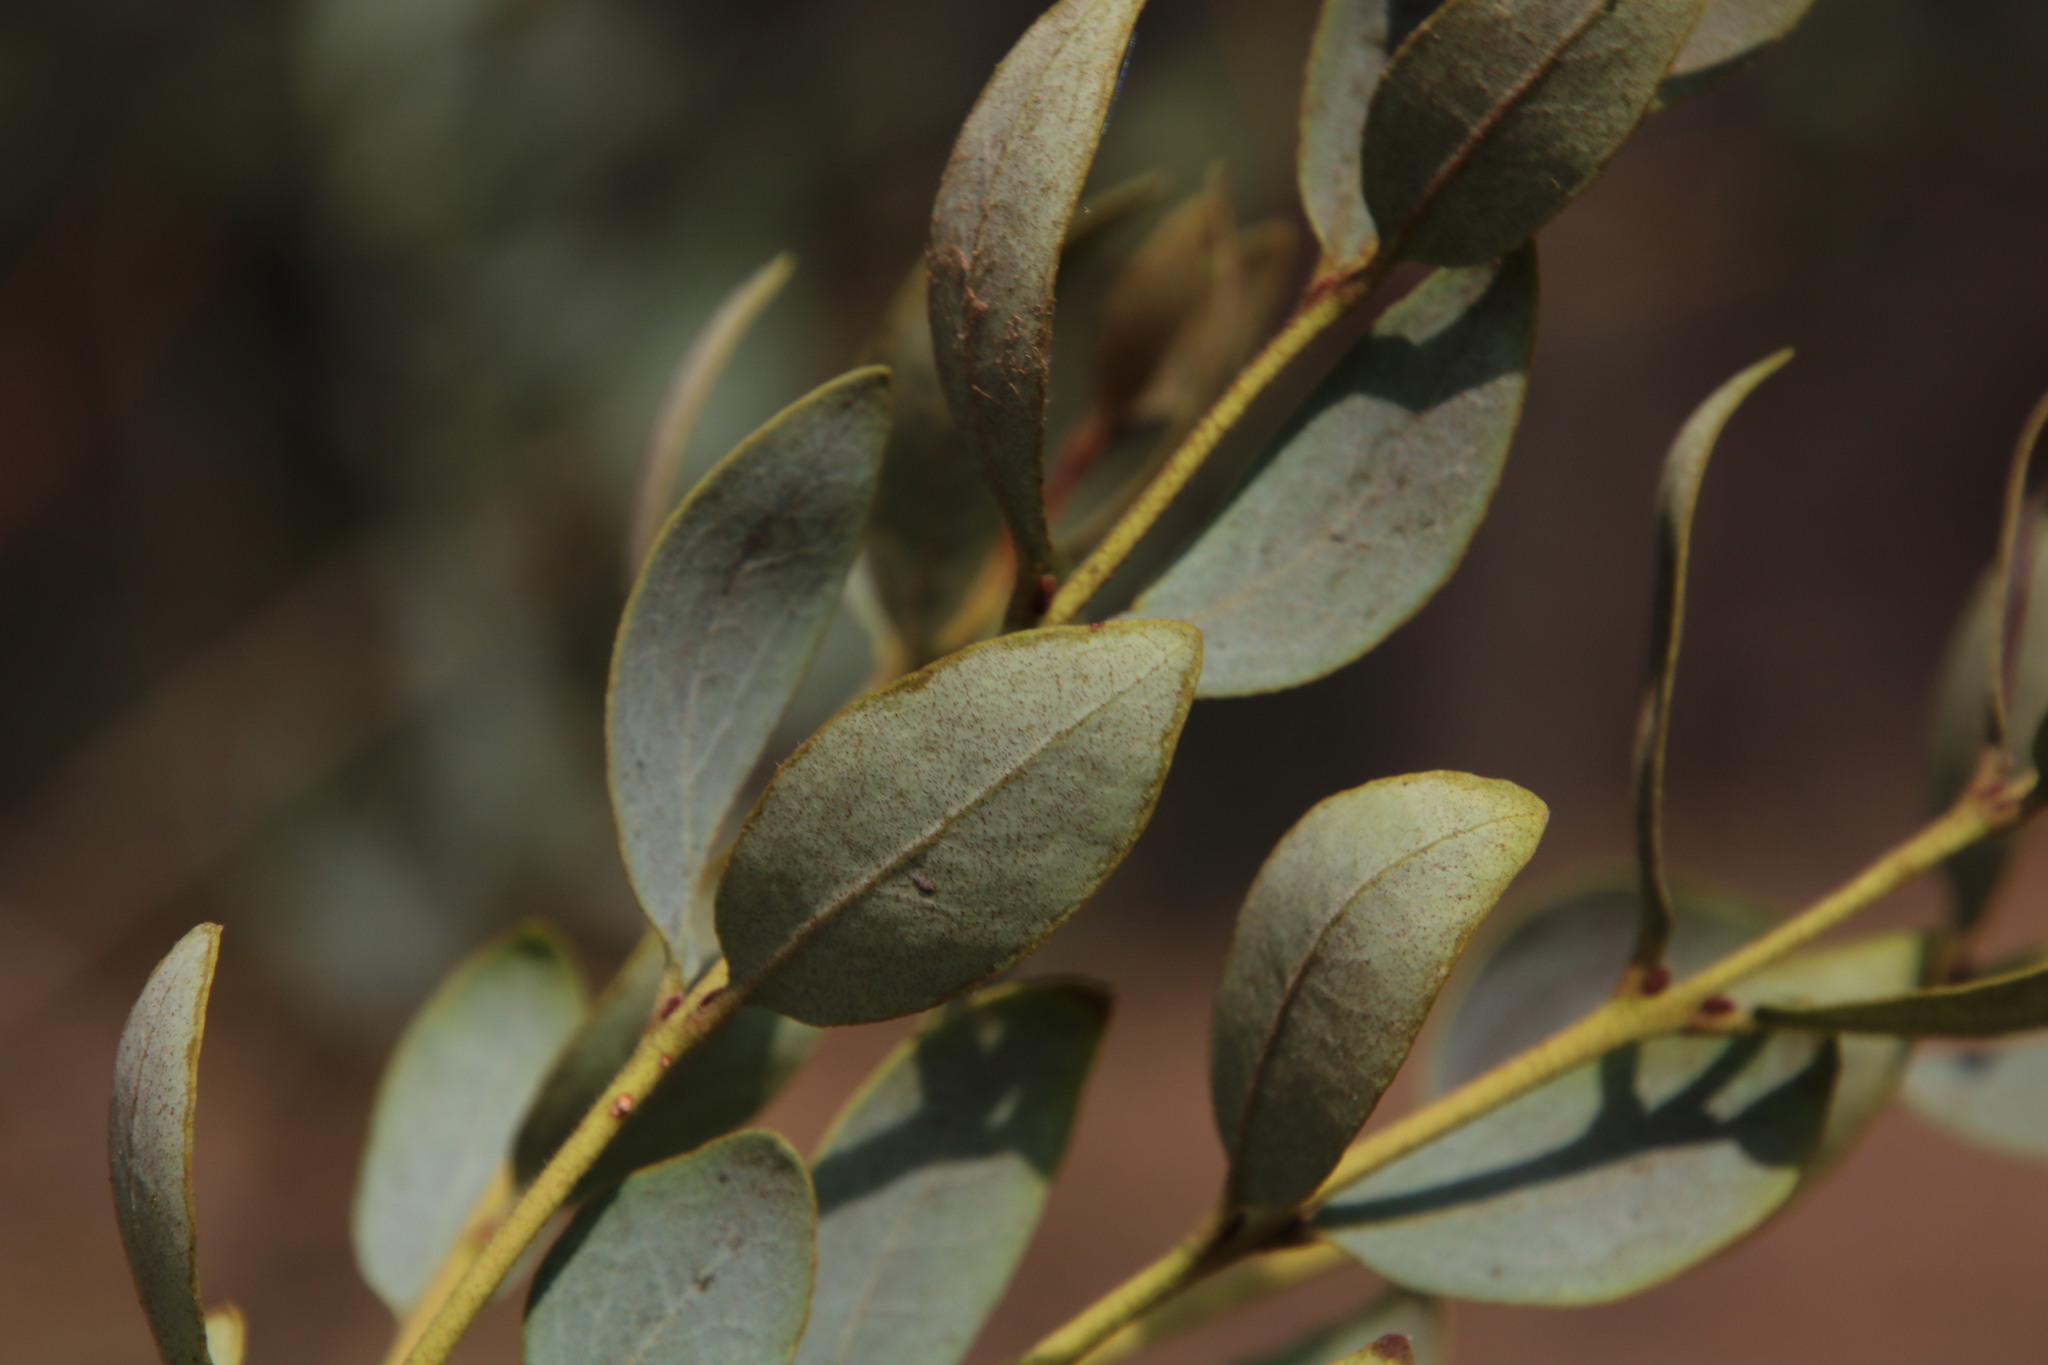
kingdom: Plantae
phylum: Tracheophyta
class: Magnoliopsida
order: Ericales
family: Ebenaceae
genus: Euclea
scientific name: Euclea crispa
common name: Blue guarri
